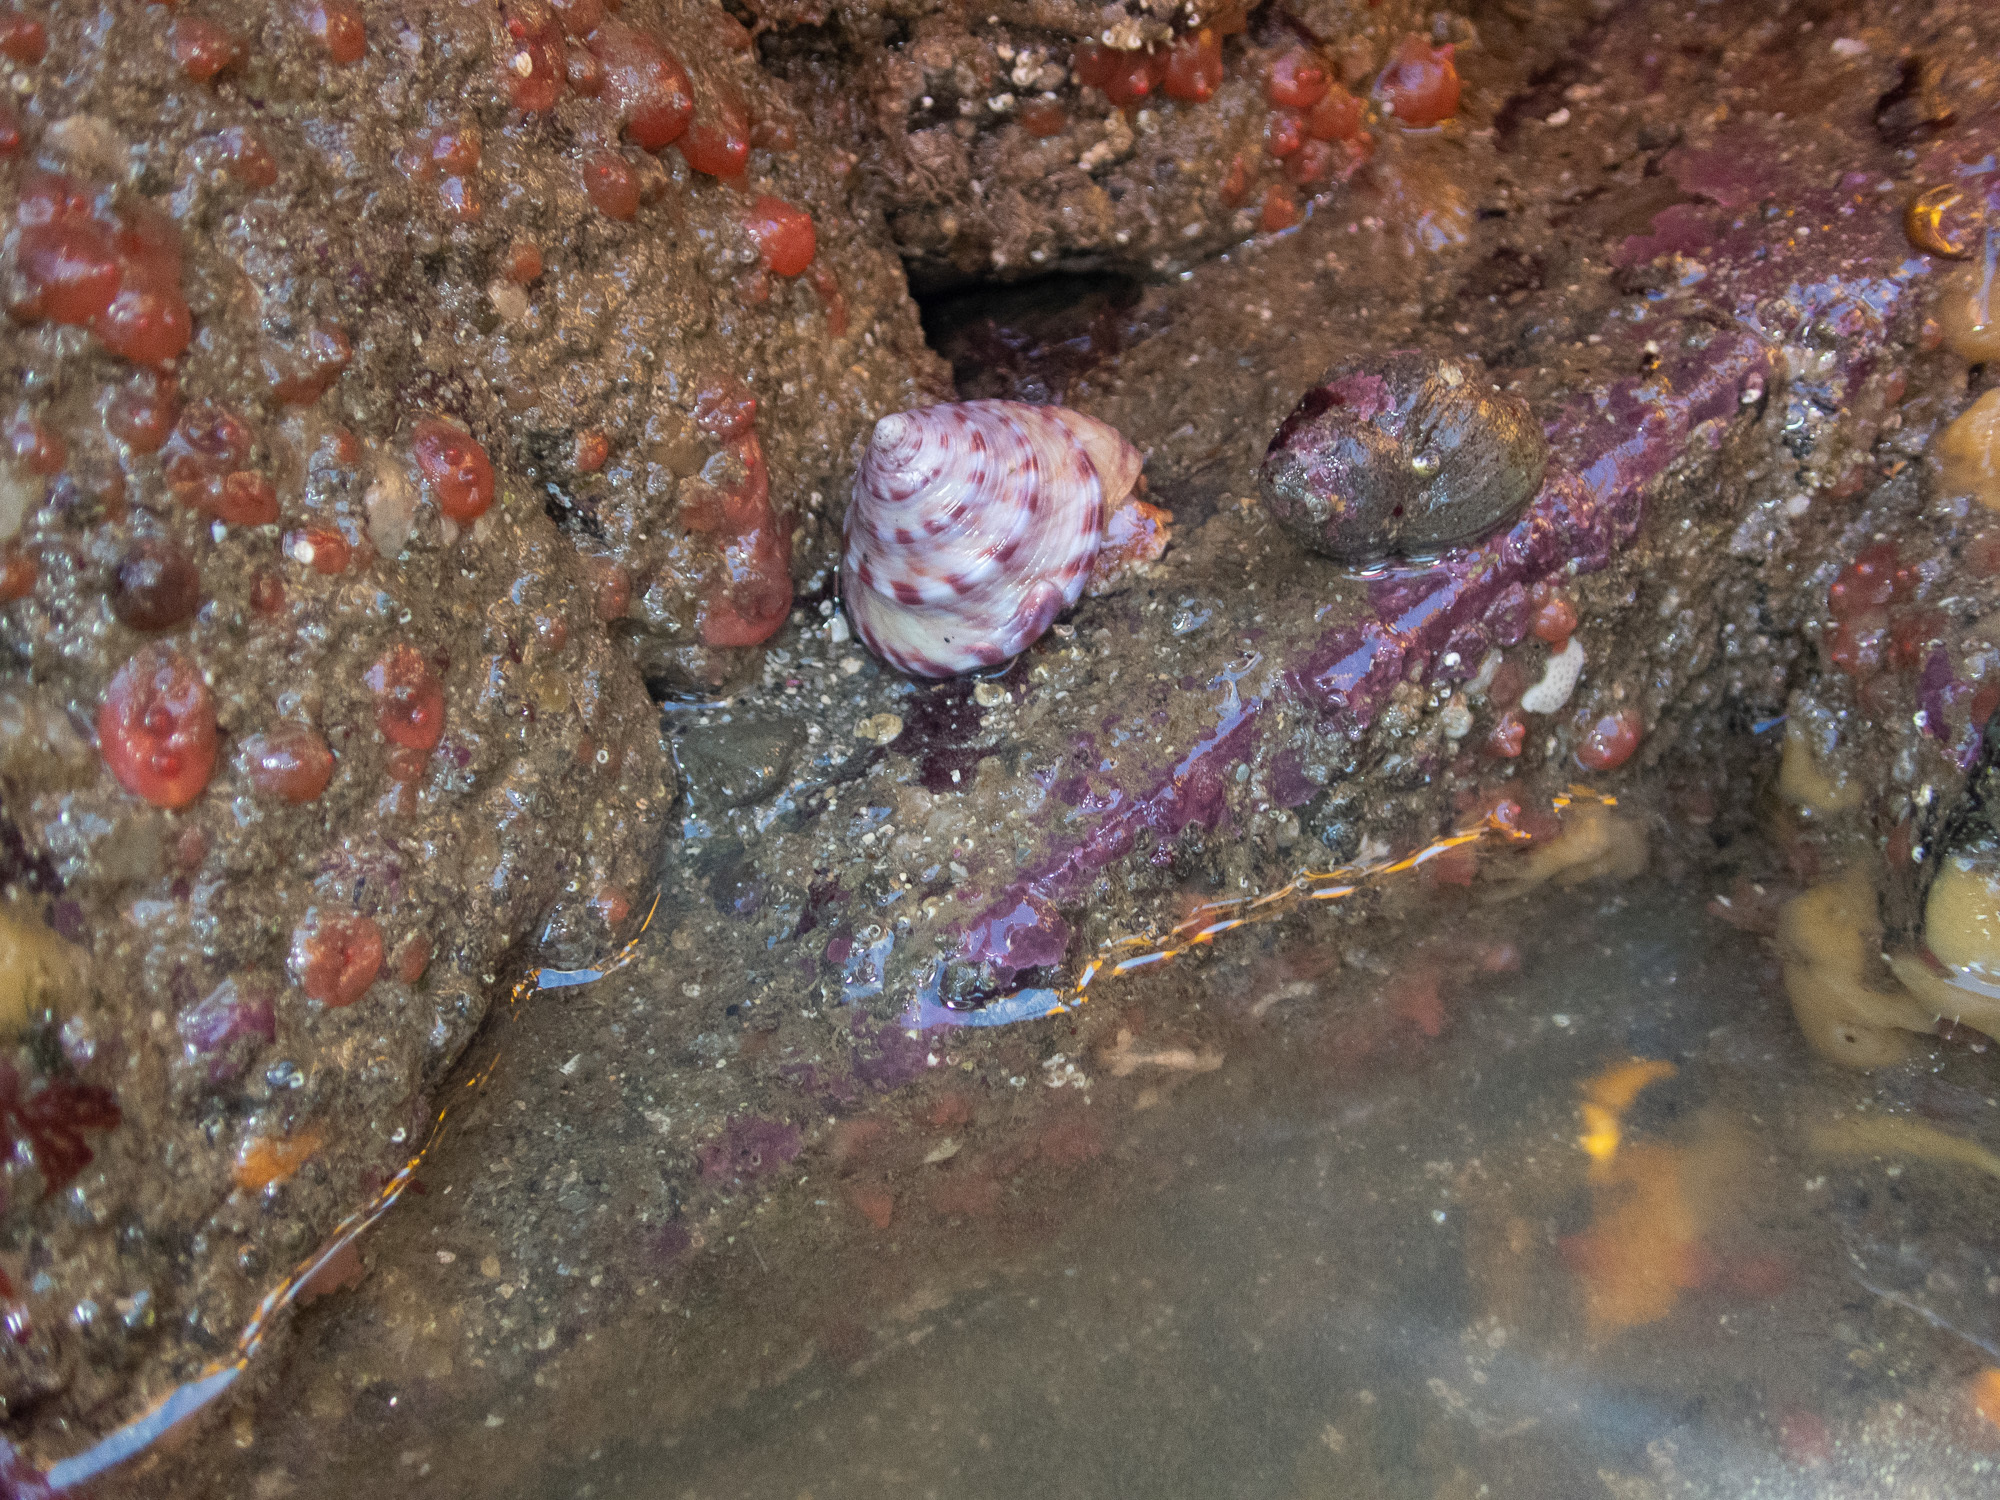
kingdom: Animalia
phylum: Mollusca
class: Gastropoda
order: Trochida
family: Calliostomatidae
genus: Calliostoma
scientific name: Calliostoma zizyphinum
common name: Painted top shell
